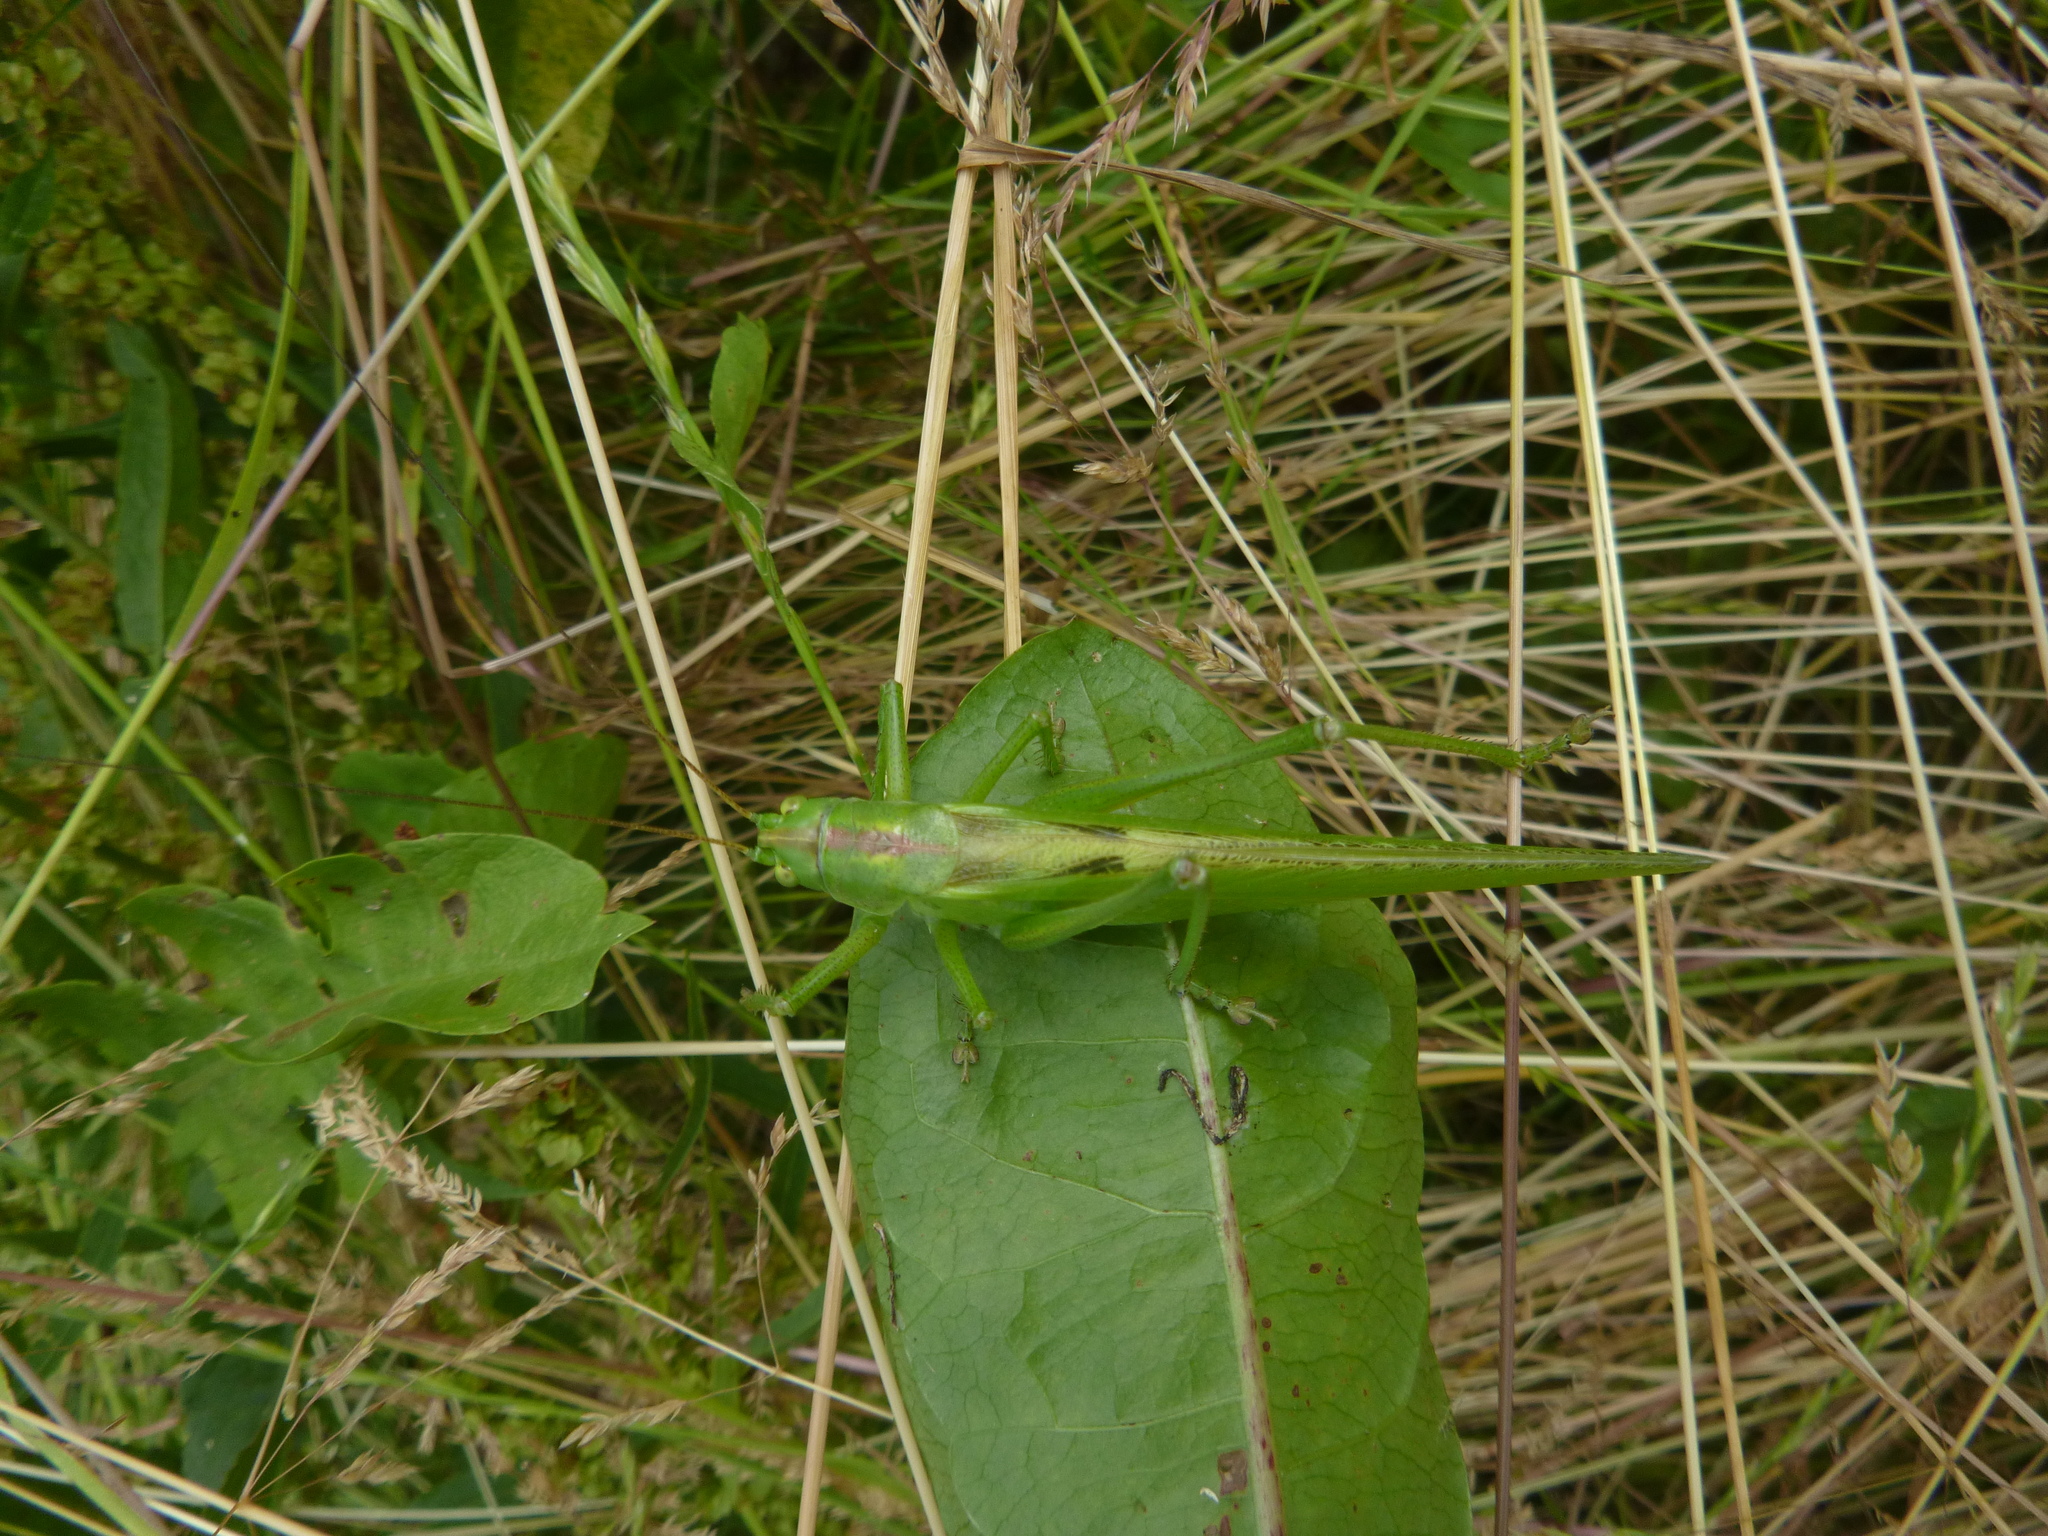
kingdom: Animalia
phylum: Arthropoda
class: Insecta
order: Orthoptera
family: Tettigoniidae
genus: Tettigonia
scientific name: Tettigonia viridissima
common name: Great green bush-cricket
